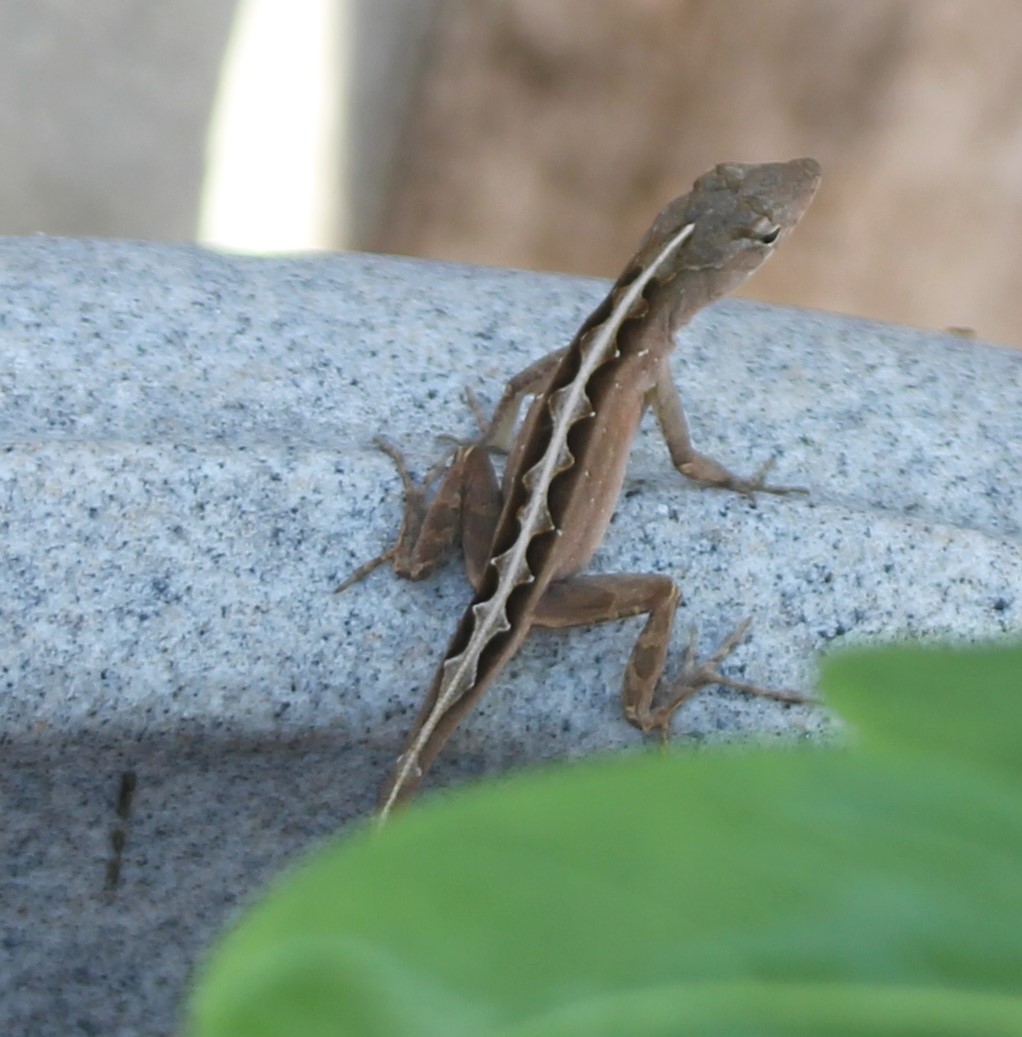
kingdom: Animalia
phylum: Chordata
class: Squamata
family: Dactyloidae
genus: Anolis
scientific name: Anolis sagrei
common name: Brown anole
